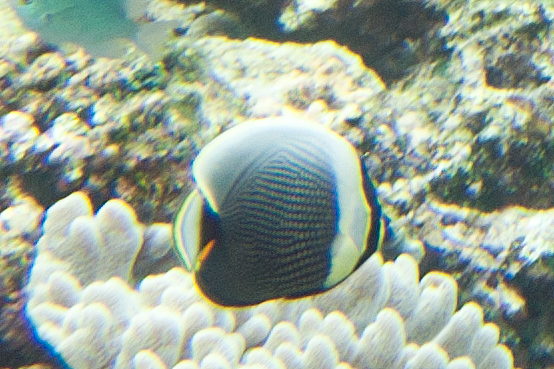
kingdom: Animalia
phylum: Chordata
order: Perciformes
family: Chaetodontidae
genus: Chaetodon
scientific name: Chaetodon reticulatus
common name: Reticulated butterflyfish
